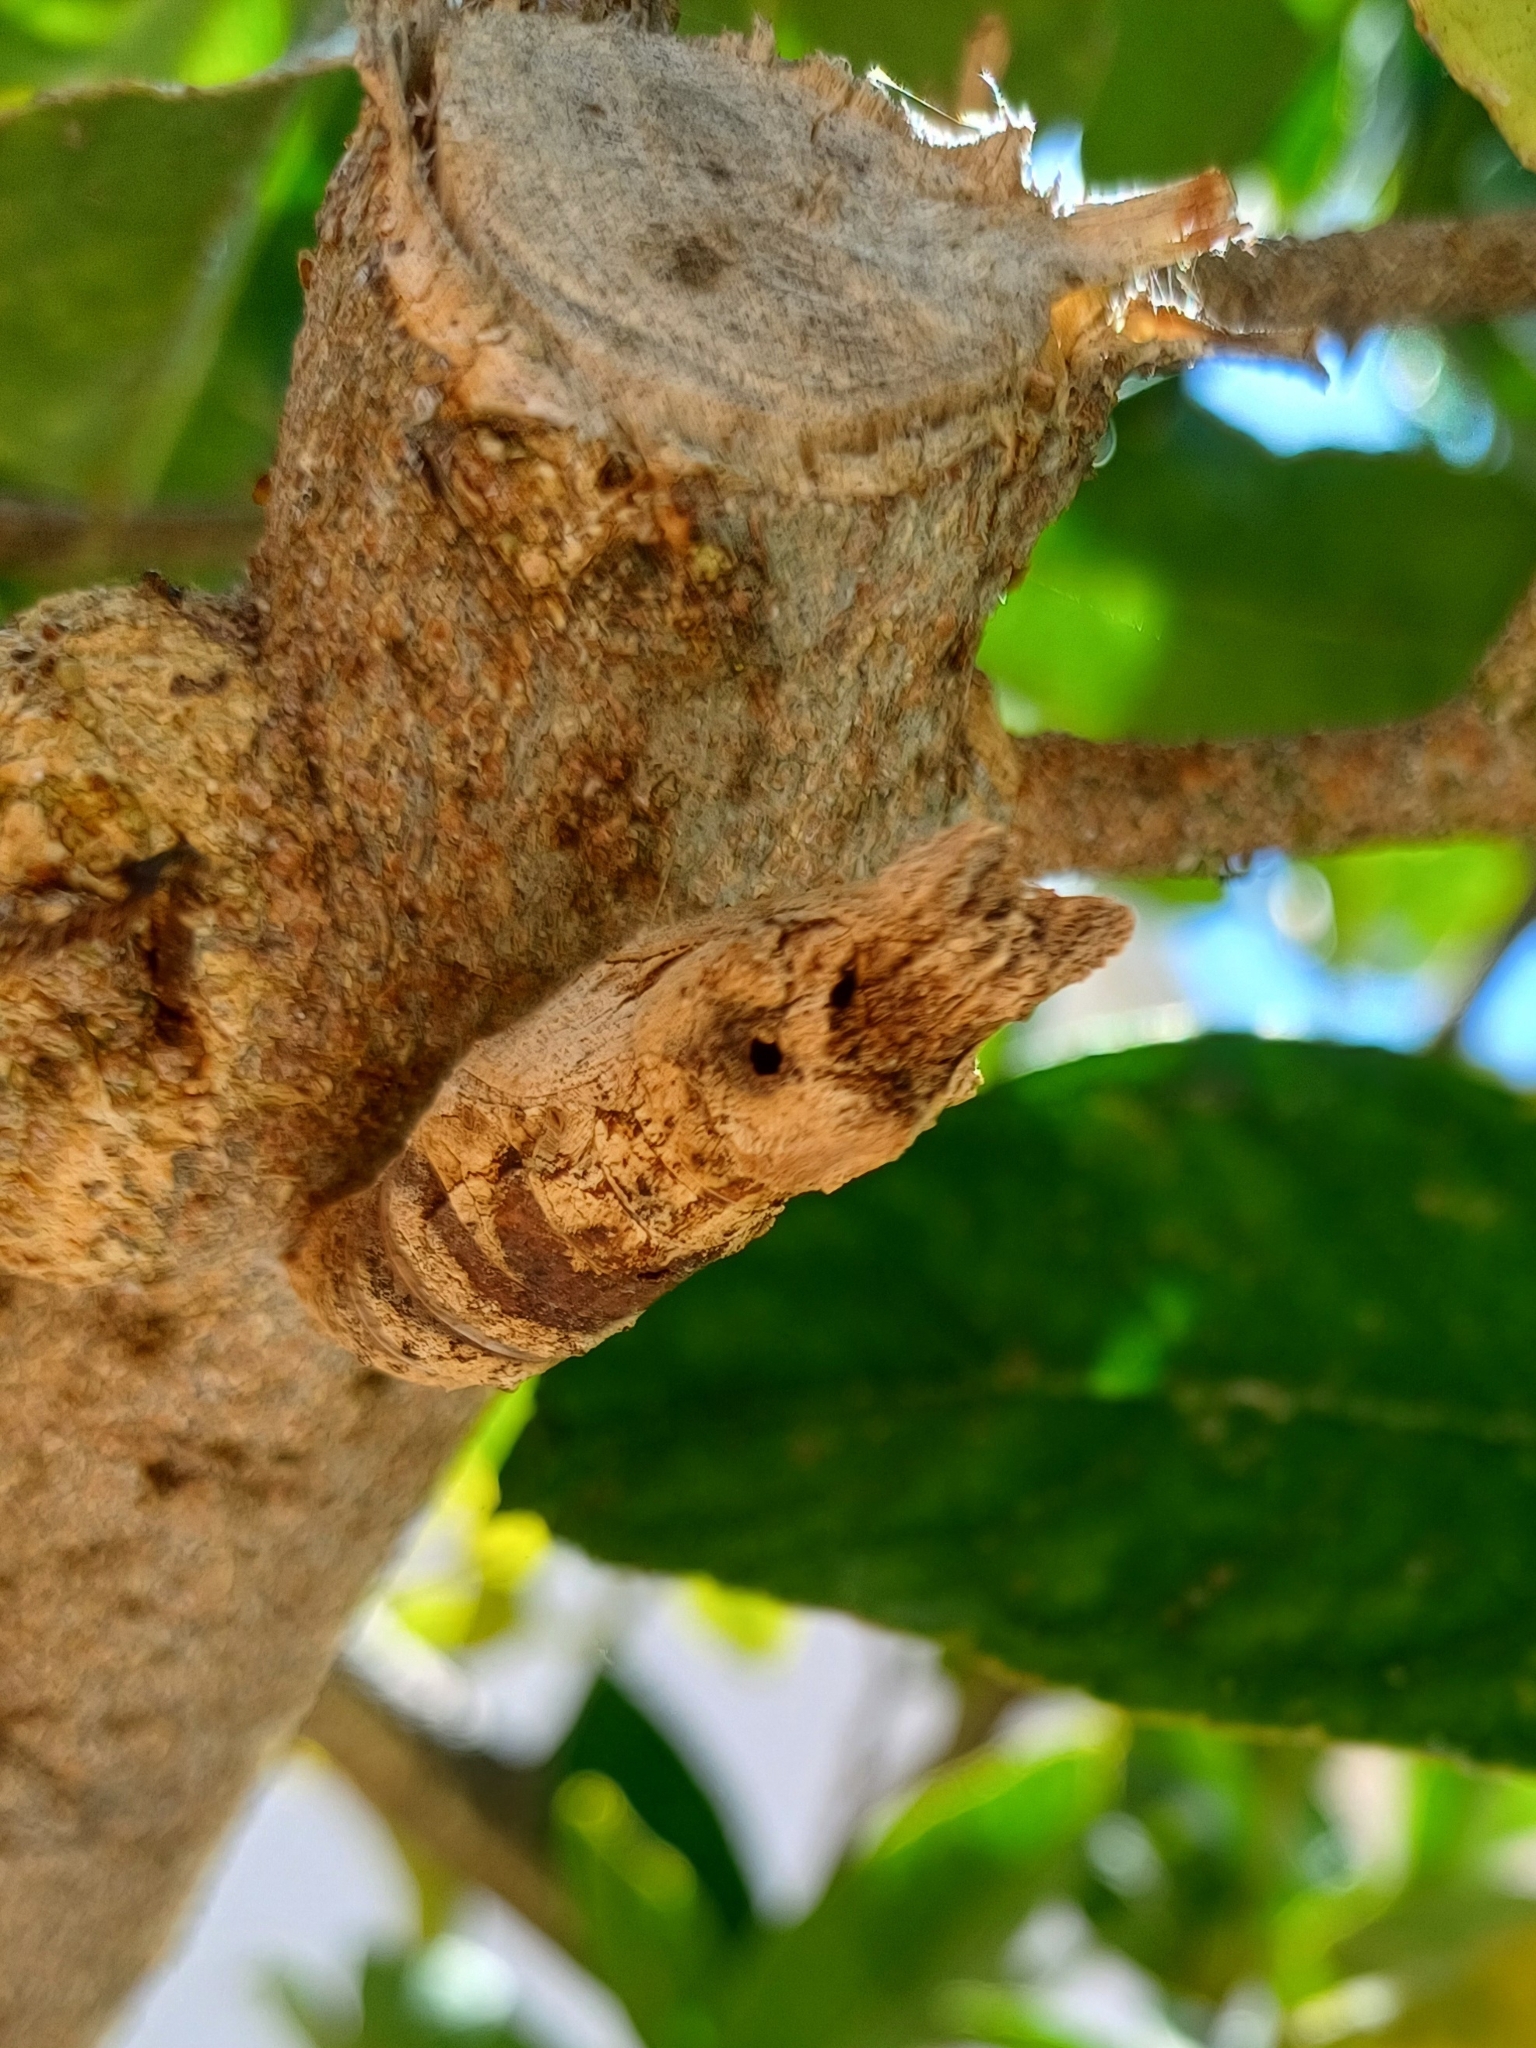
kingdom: Animalia
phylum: Arthropoda
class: Insecta
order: Lepidoptera
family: Papilionidae
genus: Papilio
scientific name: Papilio demodocus
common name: Christmas butterfly
